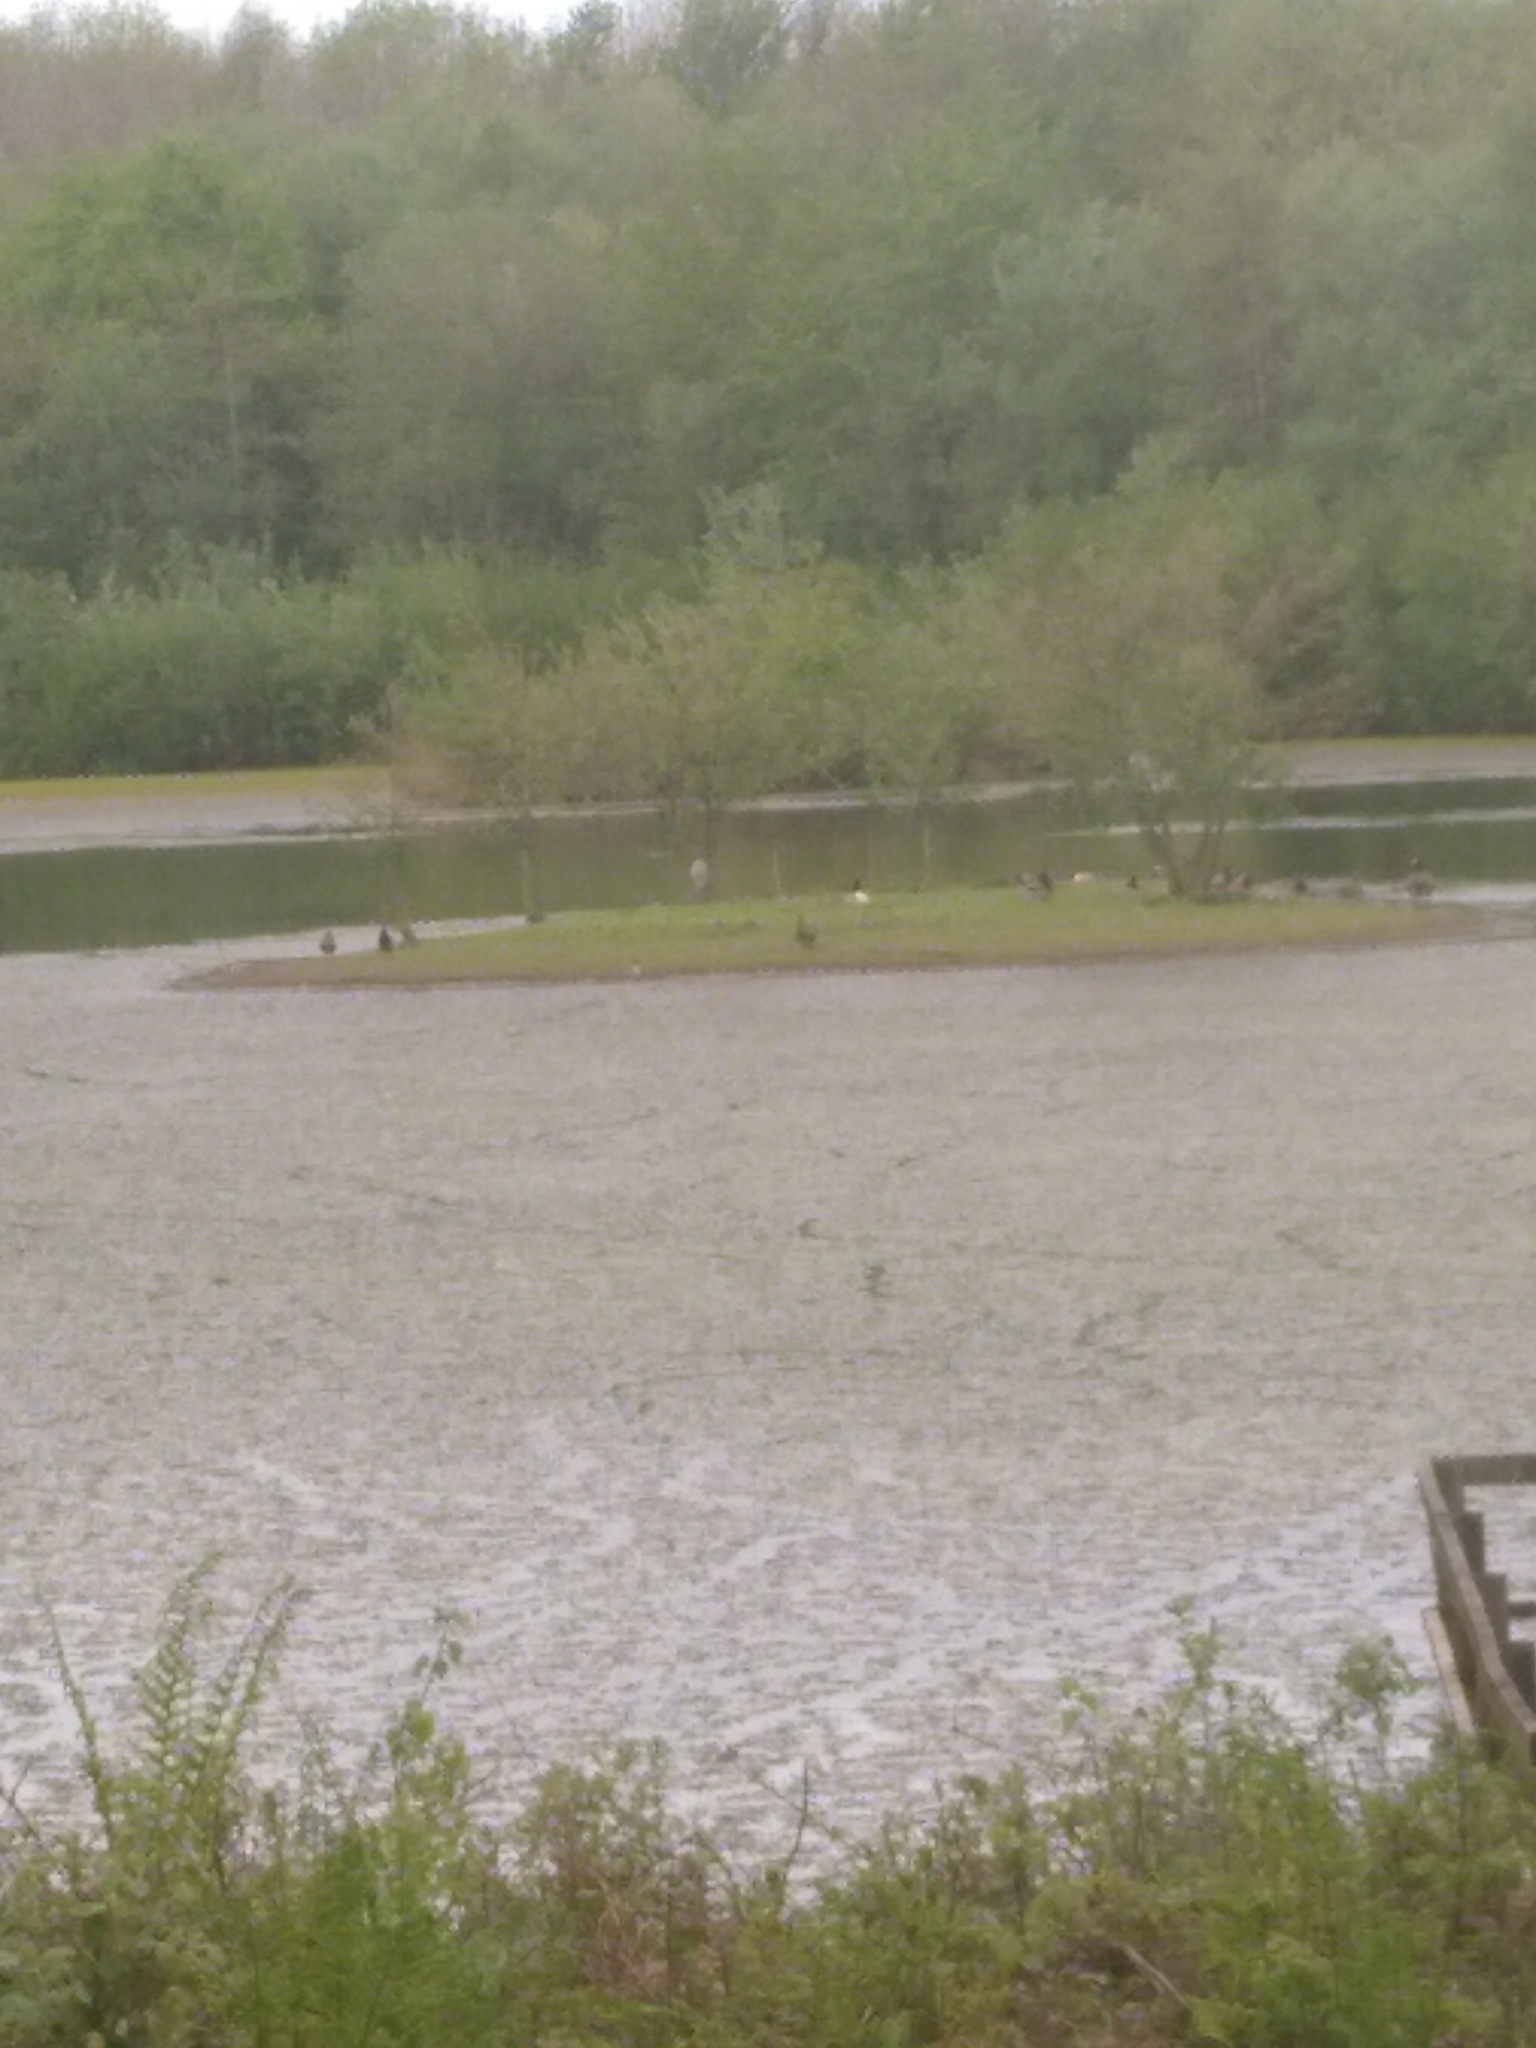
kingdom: Animalia
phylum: Chordata
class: Aves
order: Anseriformes
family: Anatidae
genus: Branta
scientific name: Branta canadensis
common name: Canada goose
